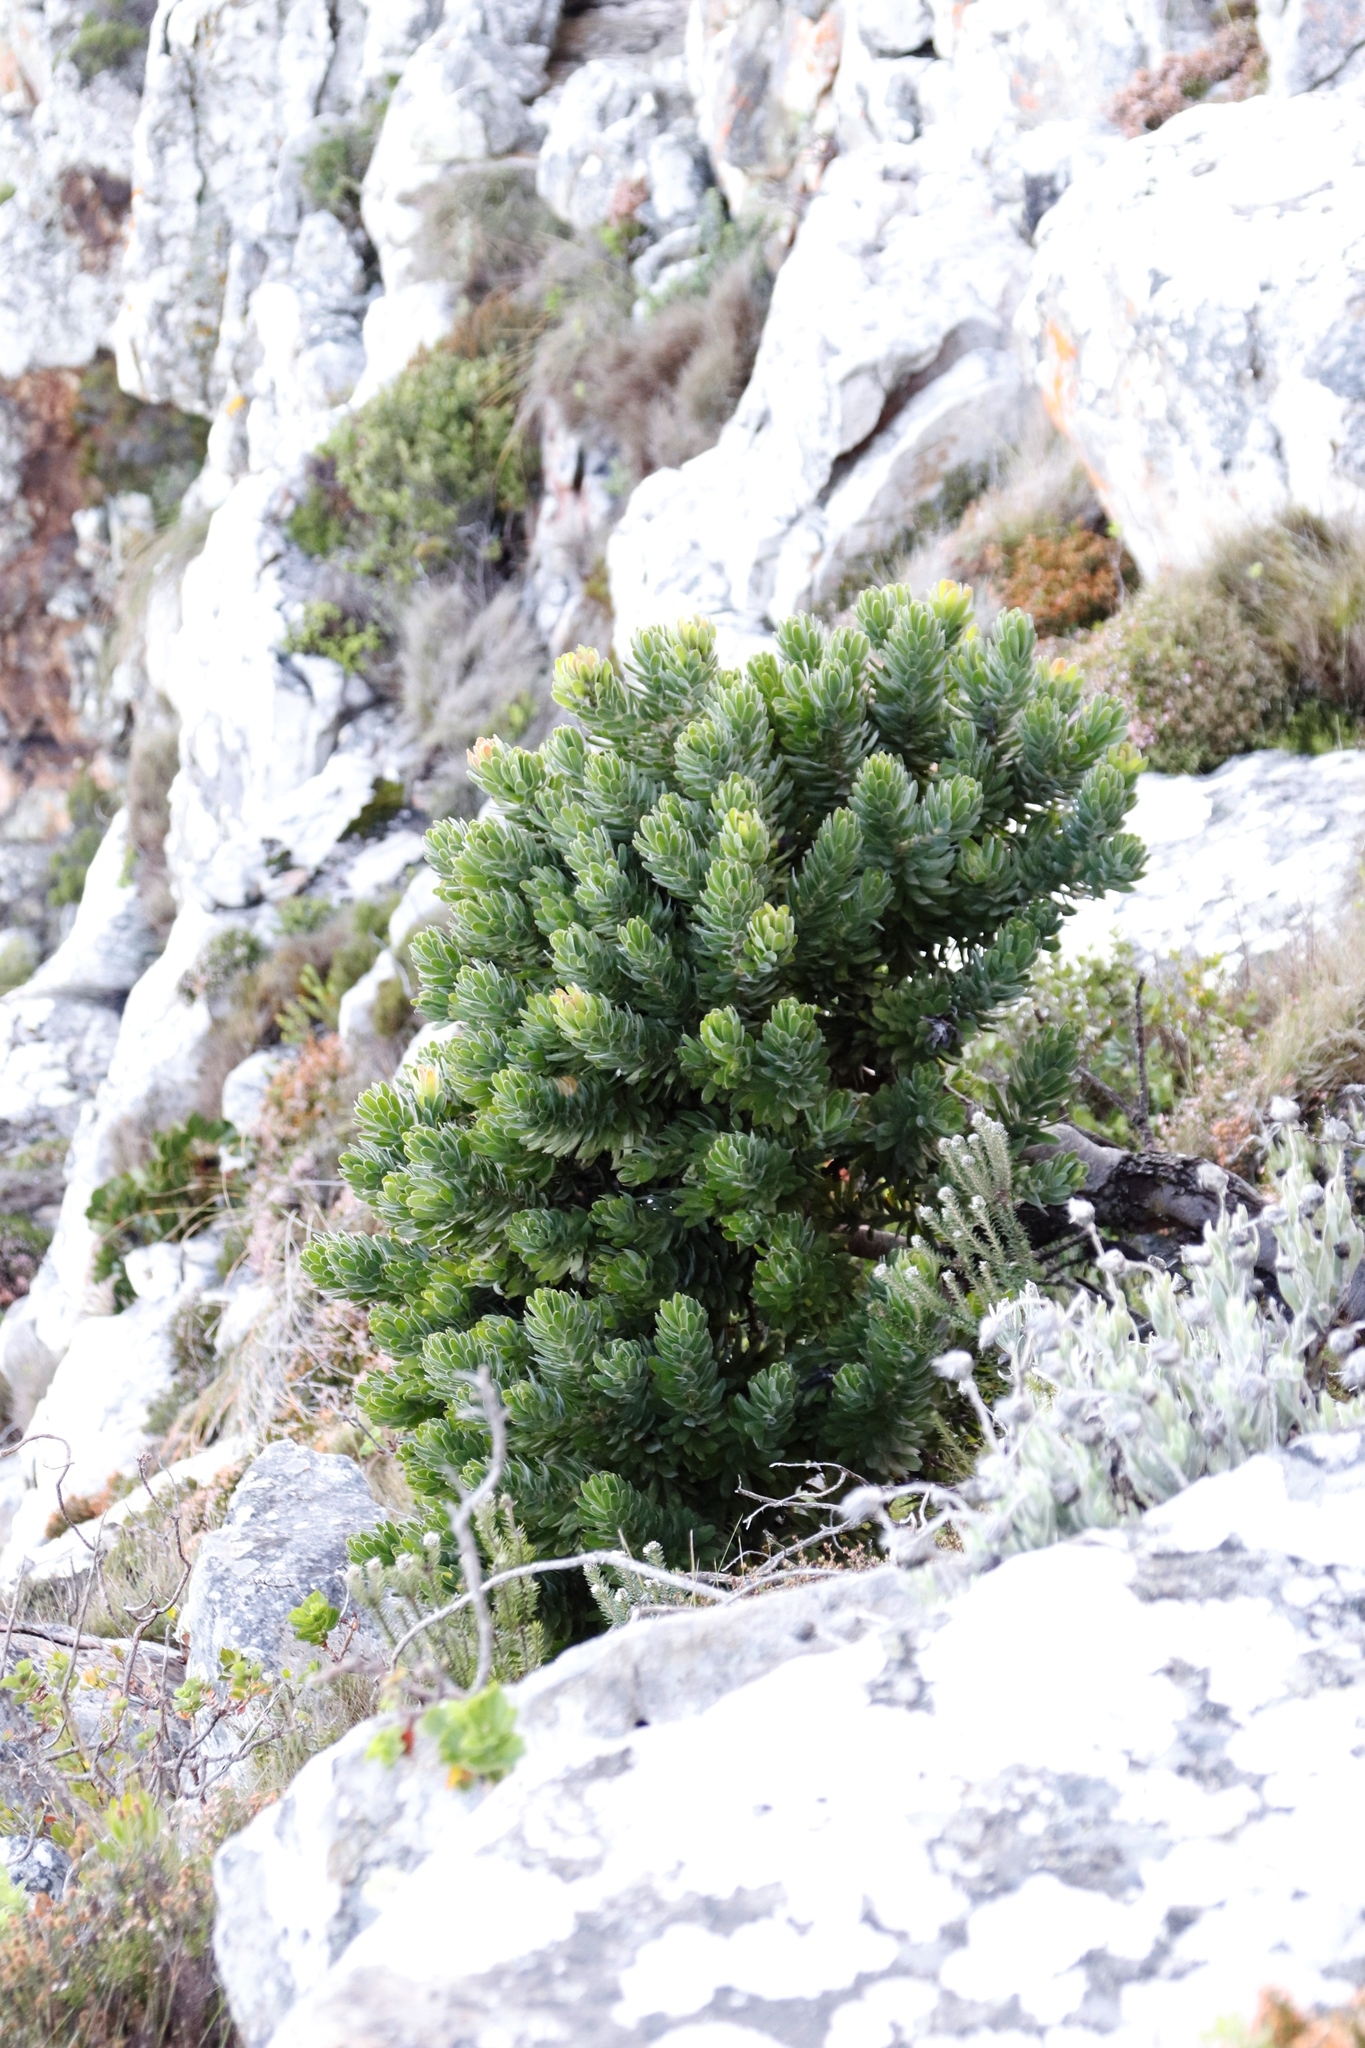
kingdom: Plantae
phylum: Tracheophyta
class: Magnoliopsida
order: Proteales
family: Proteaceae
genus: Mimetes
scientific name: Mimetes fimbriifolius
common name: Fringed bottlebrush
